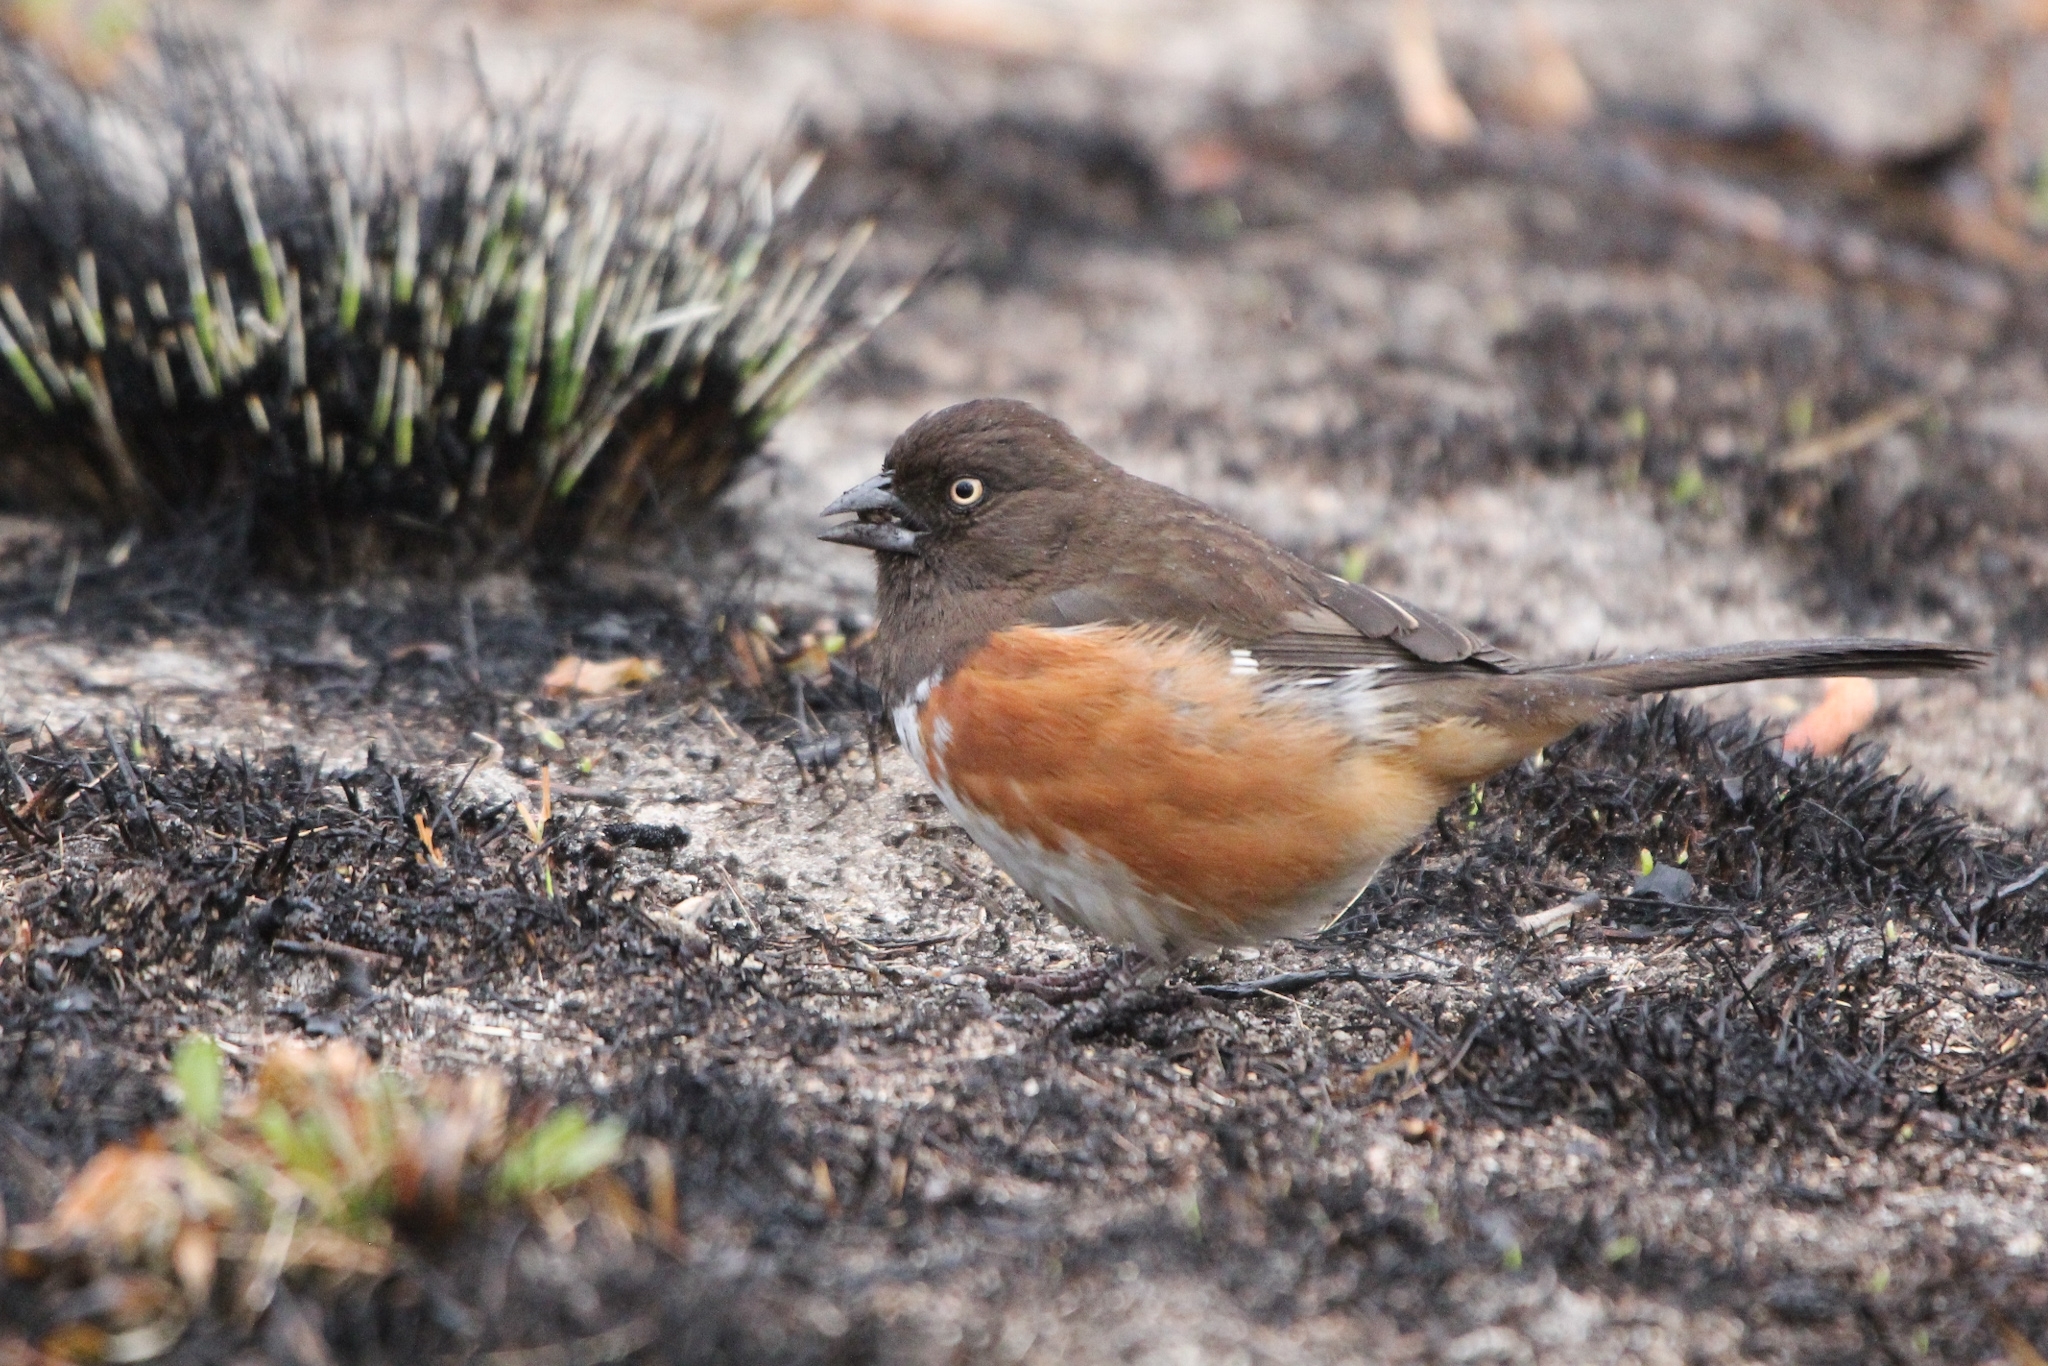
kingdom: Animalia
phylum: Chordata
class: Aves
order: Passeriformes
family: Passerellidae
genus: Pipilo
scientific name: Pipilo erythrophthalmus
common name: Eastern towhee
